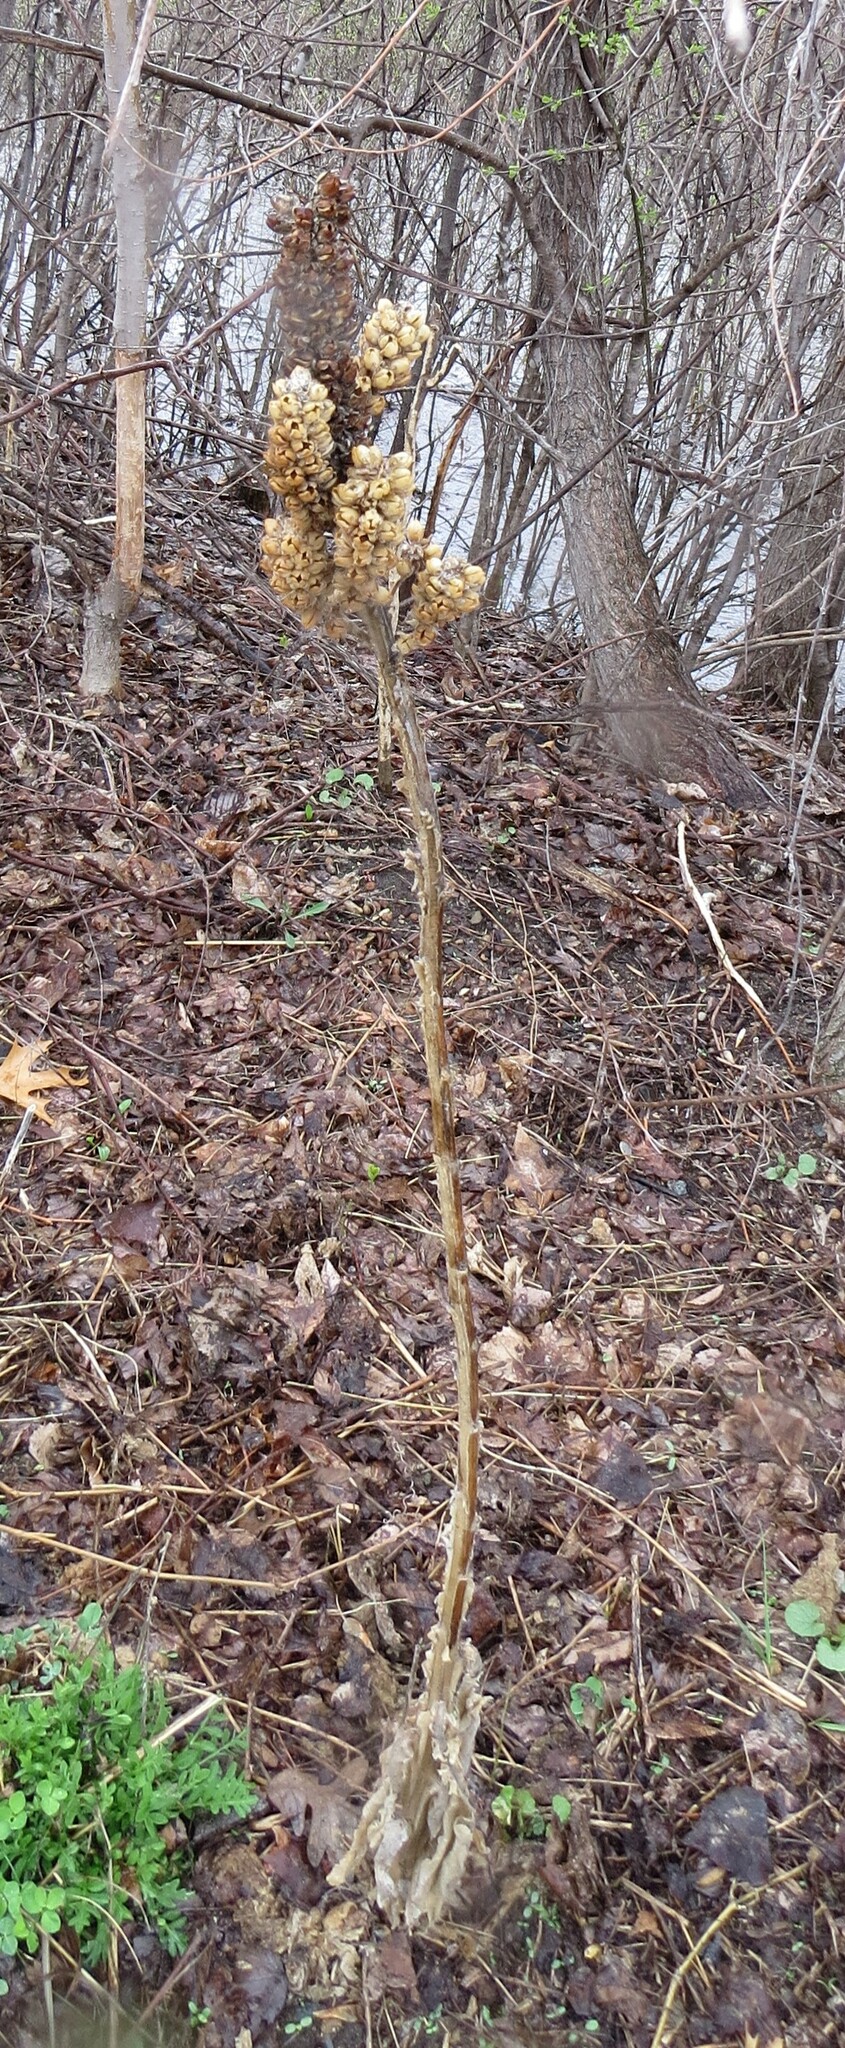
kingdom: Plantae
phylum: Tracheophyta
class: Magnoliopsida
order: Lamiales
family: Scrophulariaceae
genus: Verbascum
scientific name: Verbascum thapsus
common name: Common mullein
